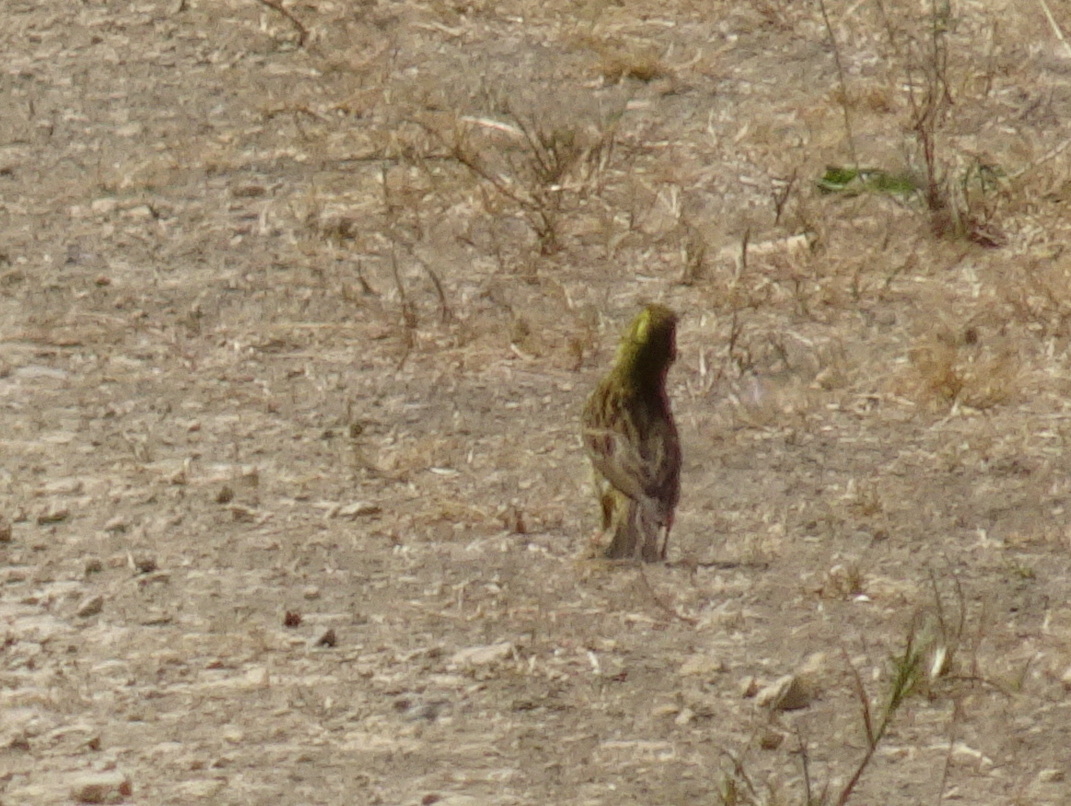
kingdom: Animalia
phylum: Chordata
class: Aves
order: Passeriformes
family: Emberizidae
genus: Emberiza
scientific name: Emberiza citrinella
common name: Yellowhammer
